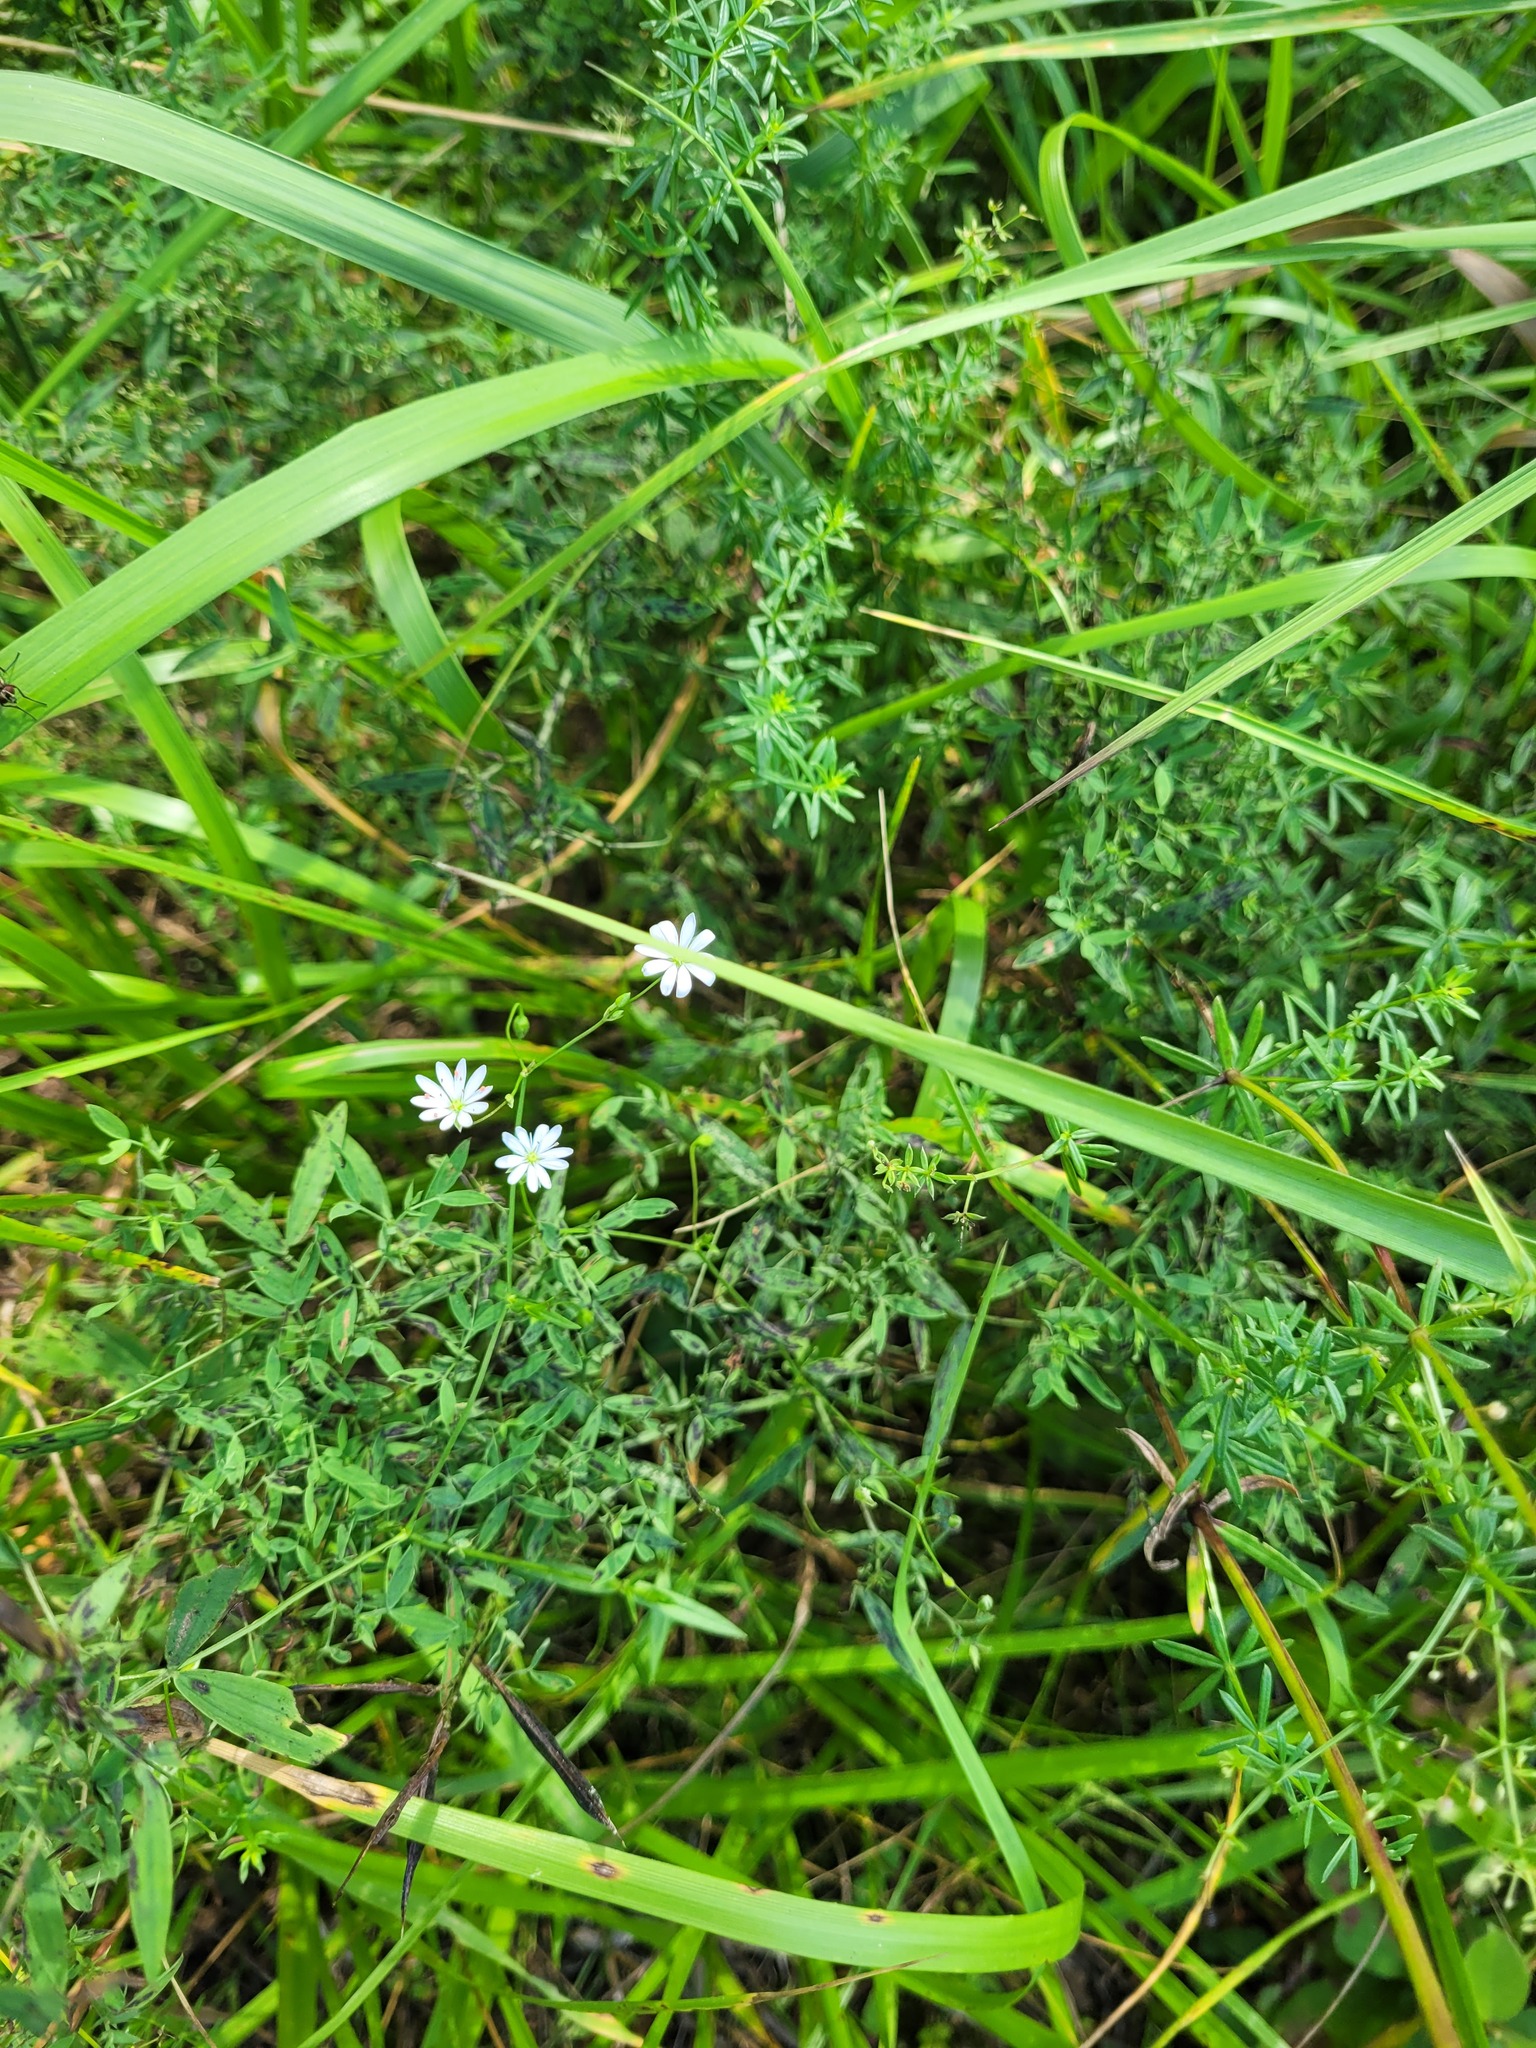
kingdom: Plantae
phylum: Tracheophyta
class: Magnoliopsida
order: Caryophyllales
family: Caryophyllaceae
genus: Stellaria
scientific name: Stellaria graminea
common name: Grass-like starwort
